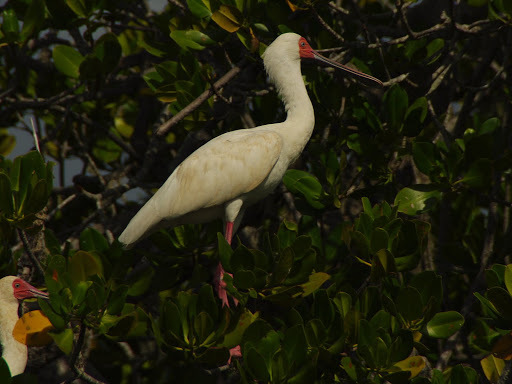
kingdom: Animalia
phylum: Chordata
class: Aves
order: Pelecaniformes
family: Threskiornithidae
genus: Platalea
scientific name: Platalea alba
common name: African spoonbill
